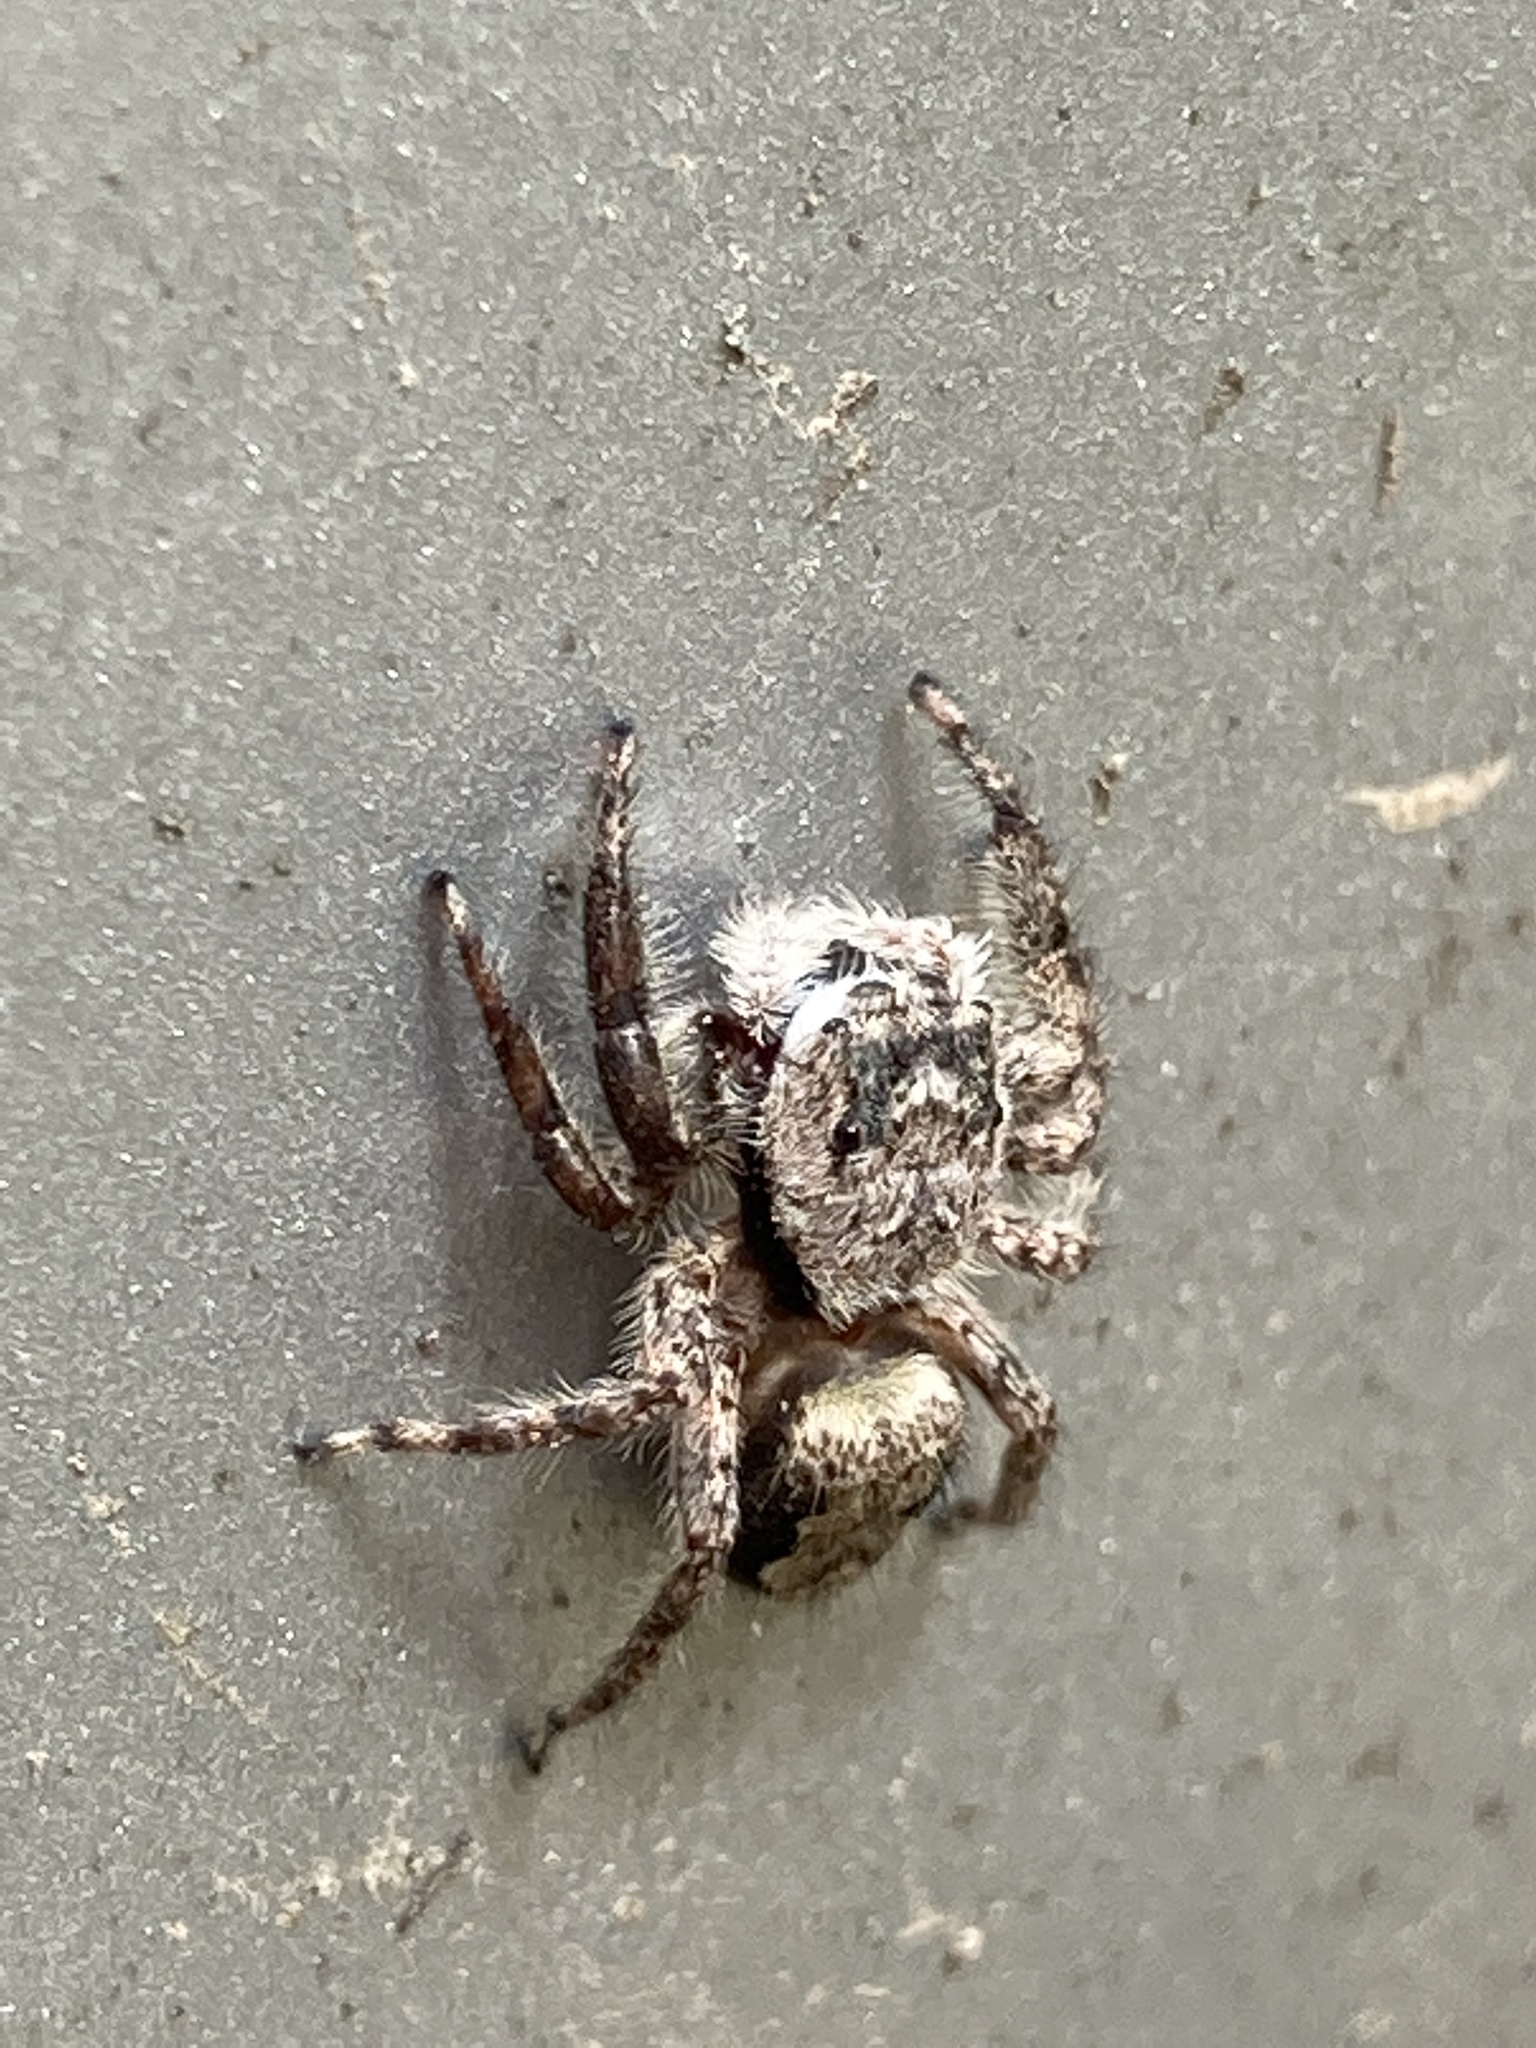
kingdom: Animalia
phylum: Arthropoda
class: Arachnida
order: Araneae
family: Salticidae
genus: Platycryptus
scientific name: Platycryptus undatus
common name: Tan jumping spider
